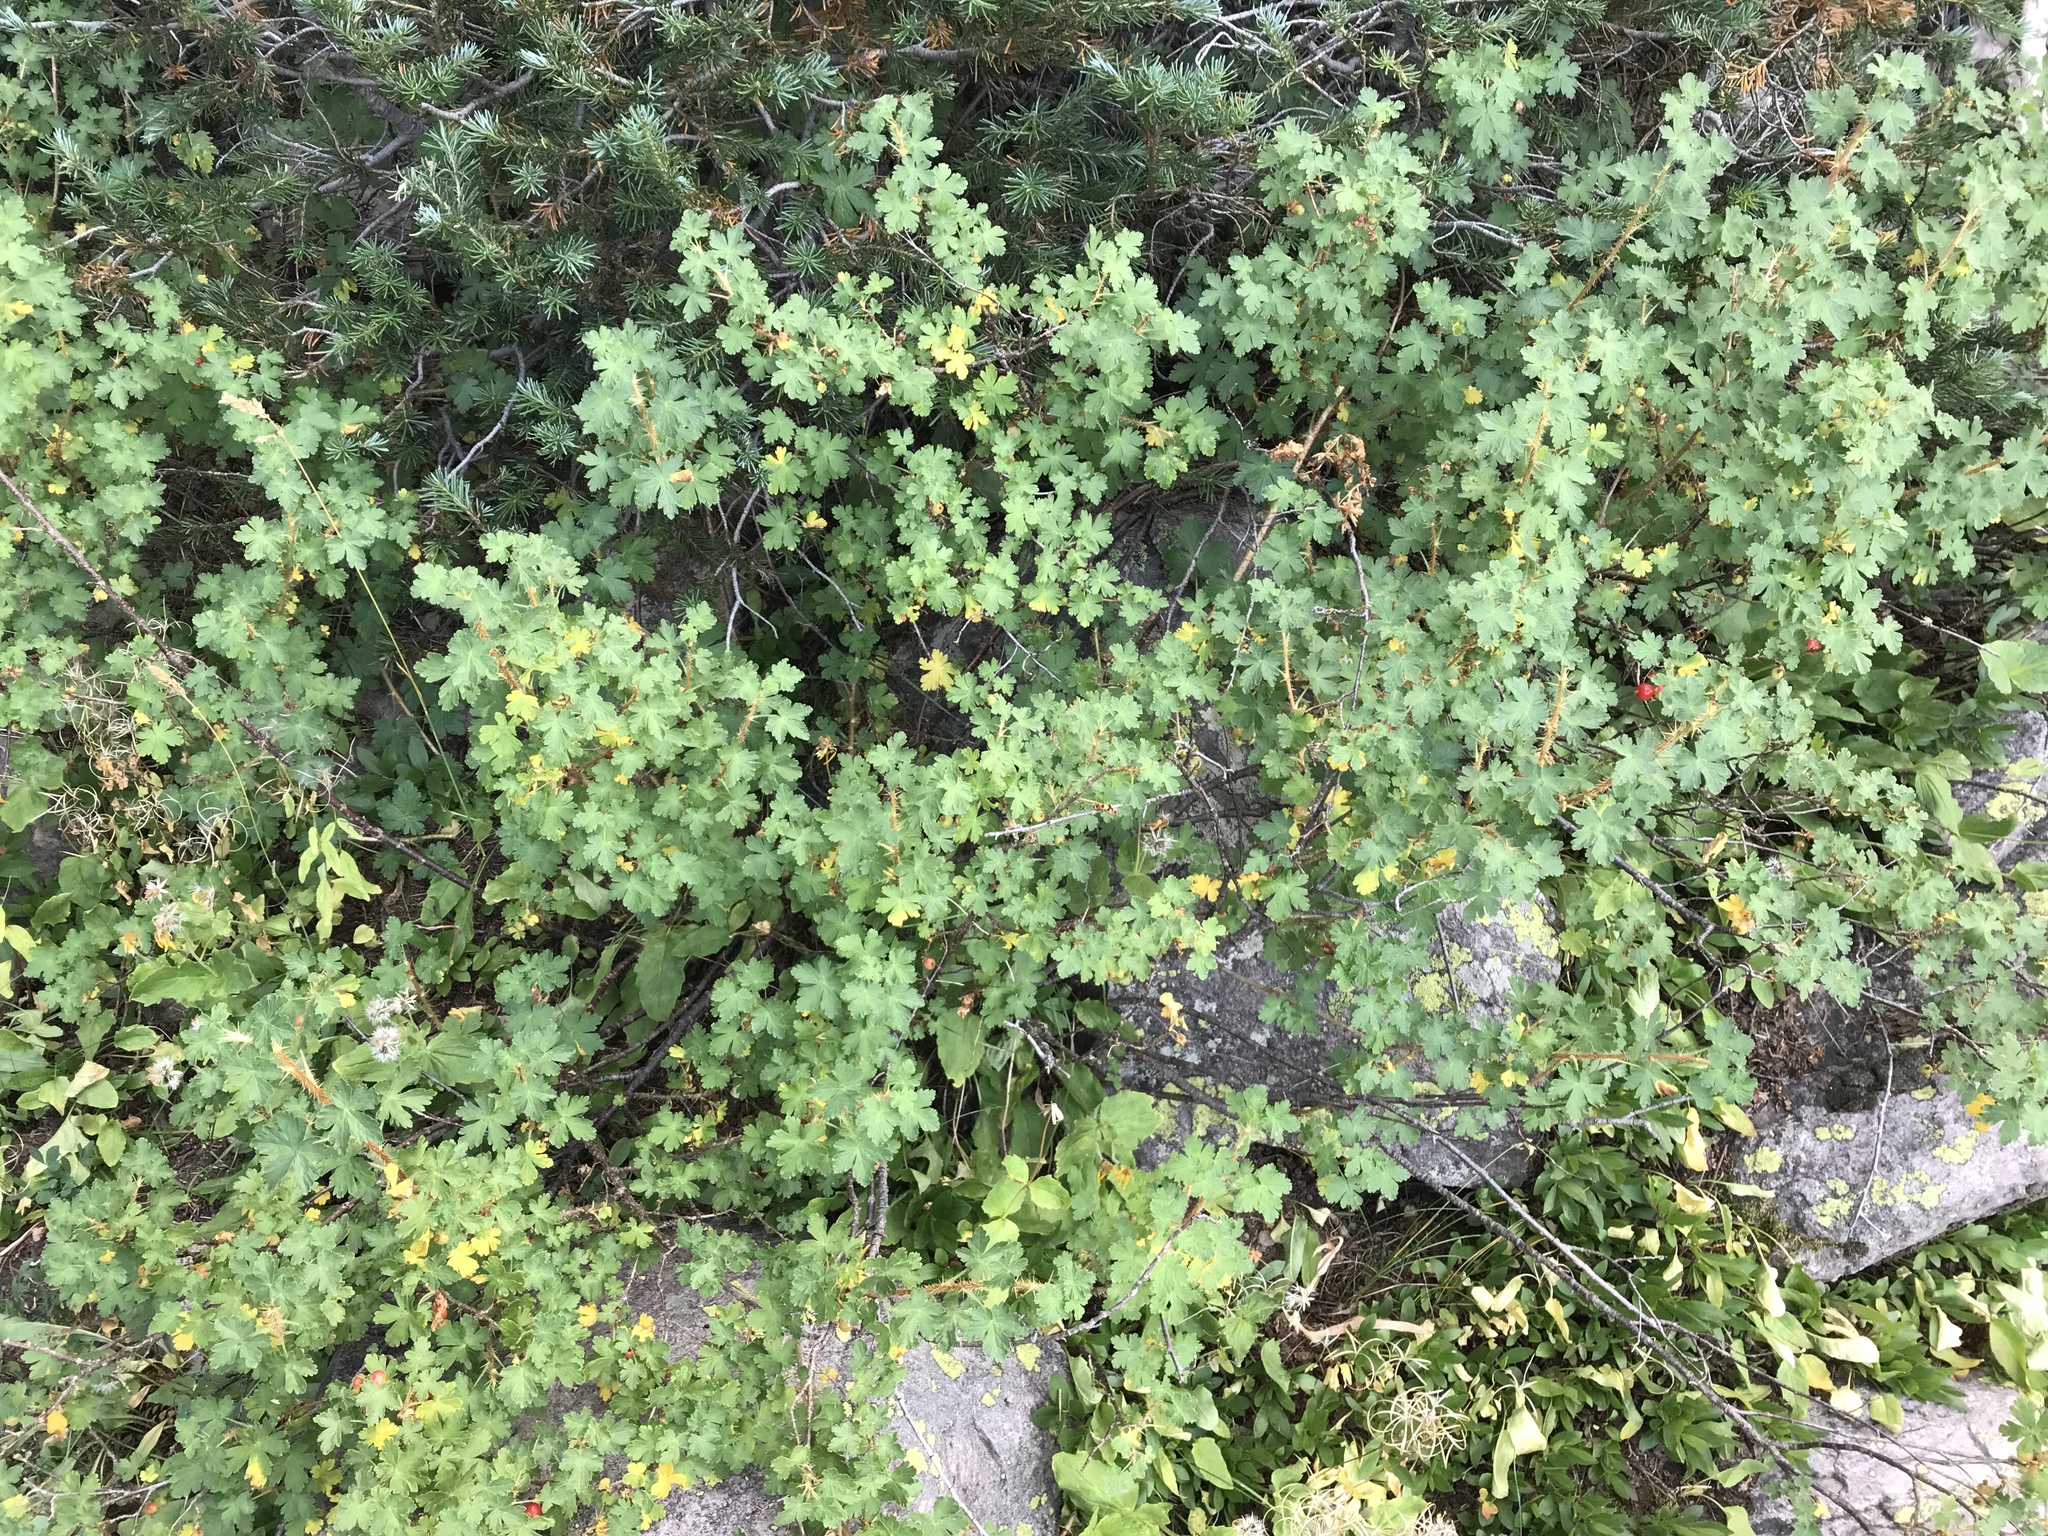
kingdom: Plantae
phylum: Tracheophyta
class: Magnoliopsida
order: Saxifragales
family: Grossulariaceae
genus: Ribes
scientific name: Ribes montigenum
